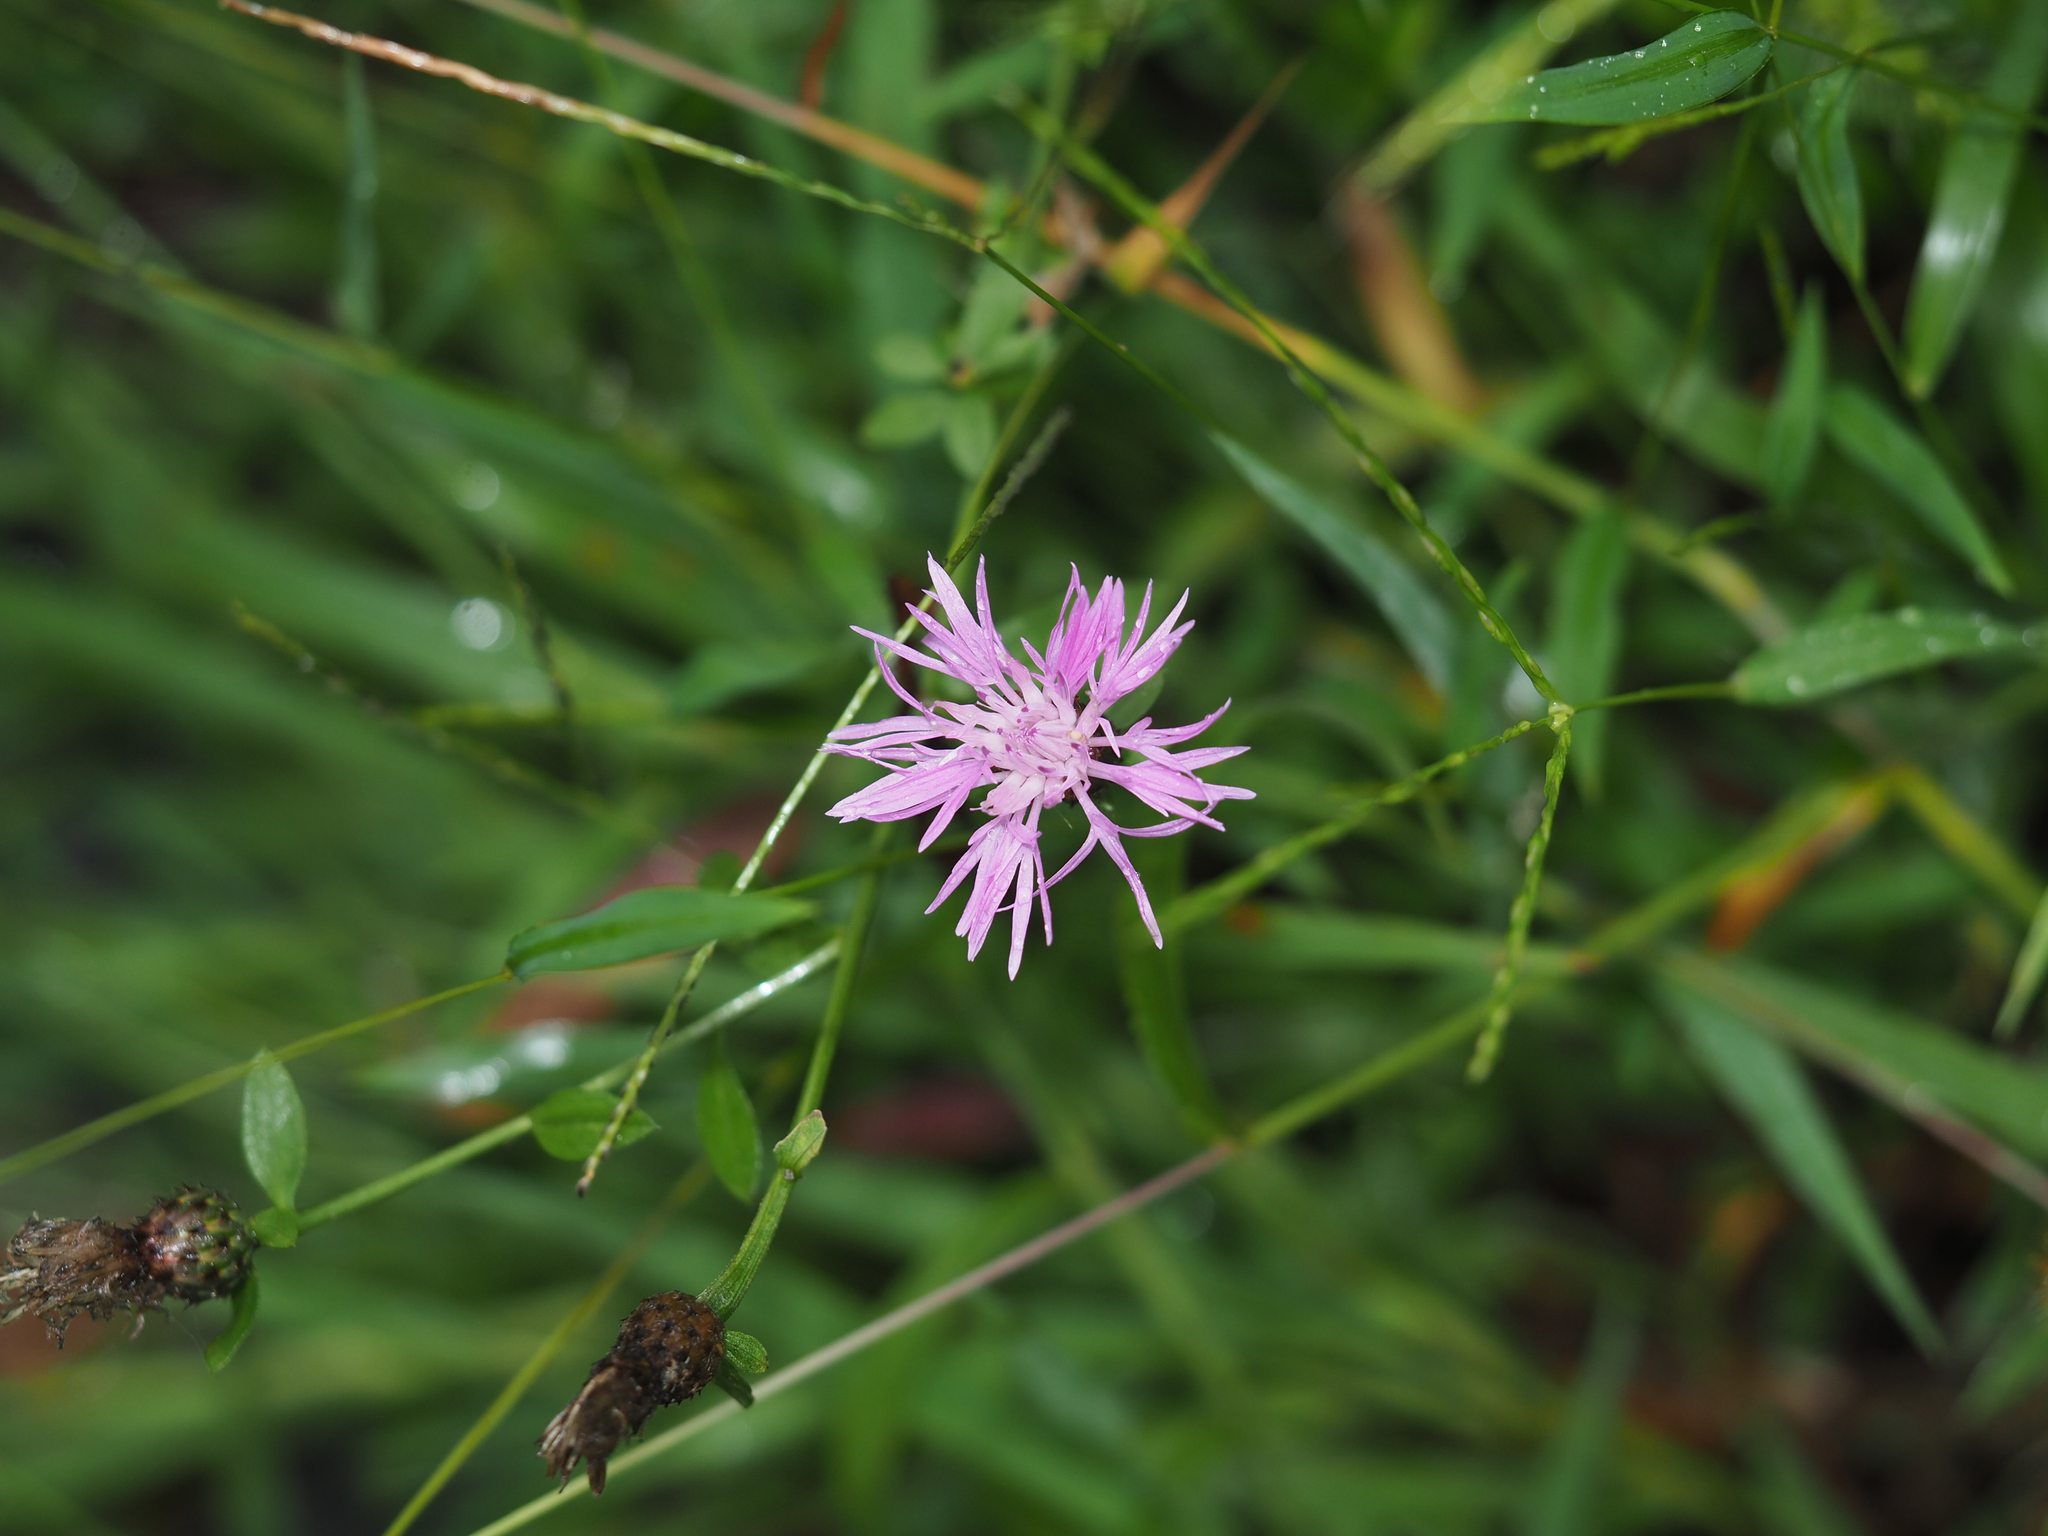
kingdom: Plantae
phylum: Tracheophyta
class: Magnoliopsida
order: Asterales
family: Asteraceae
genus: Centaurea
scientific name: Centaurea nigrescens
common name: Tyrol knapweed
